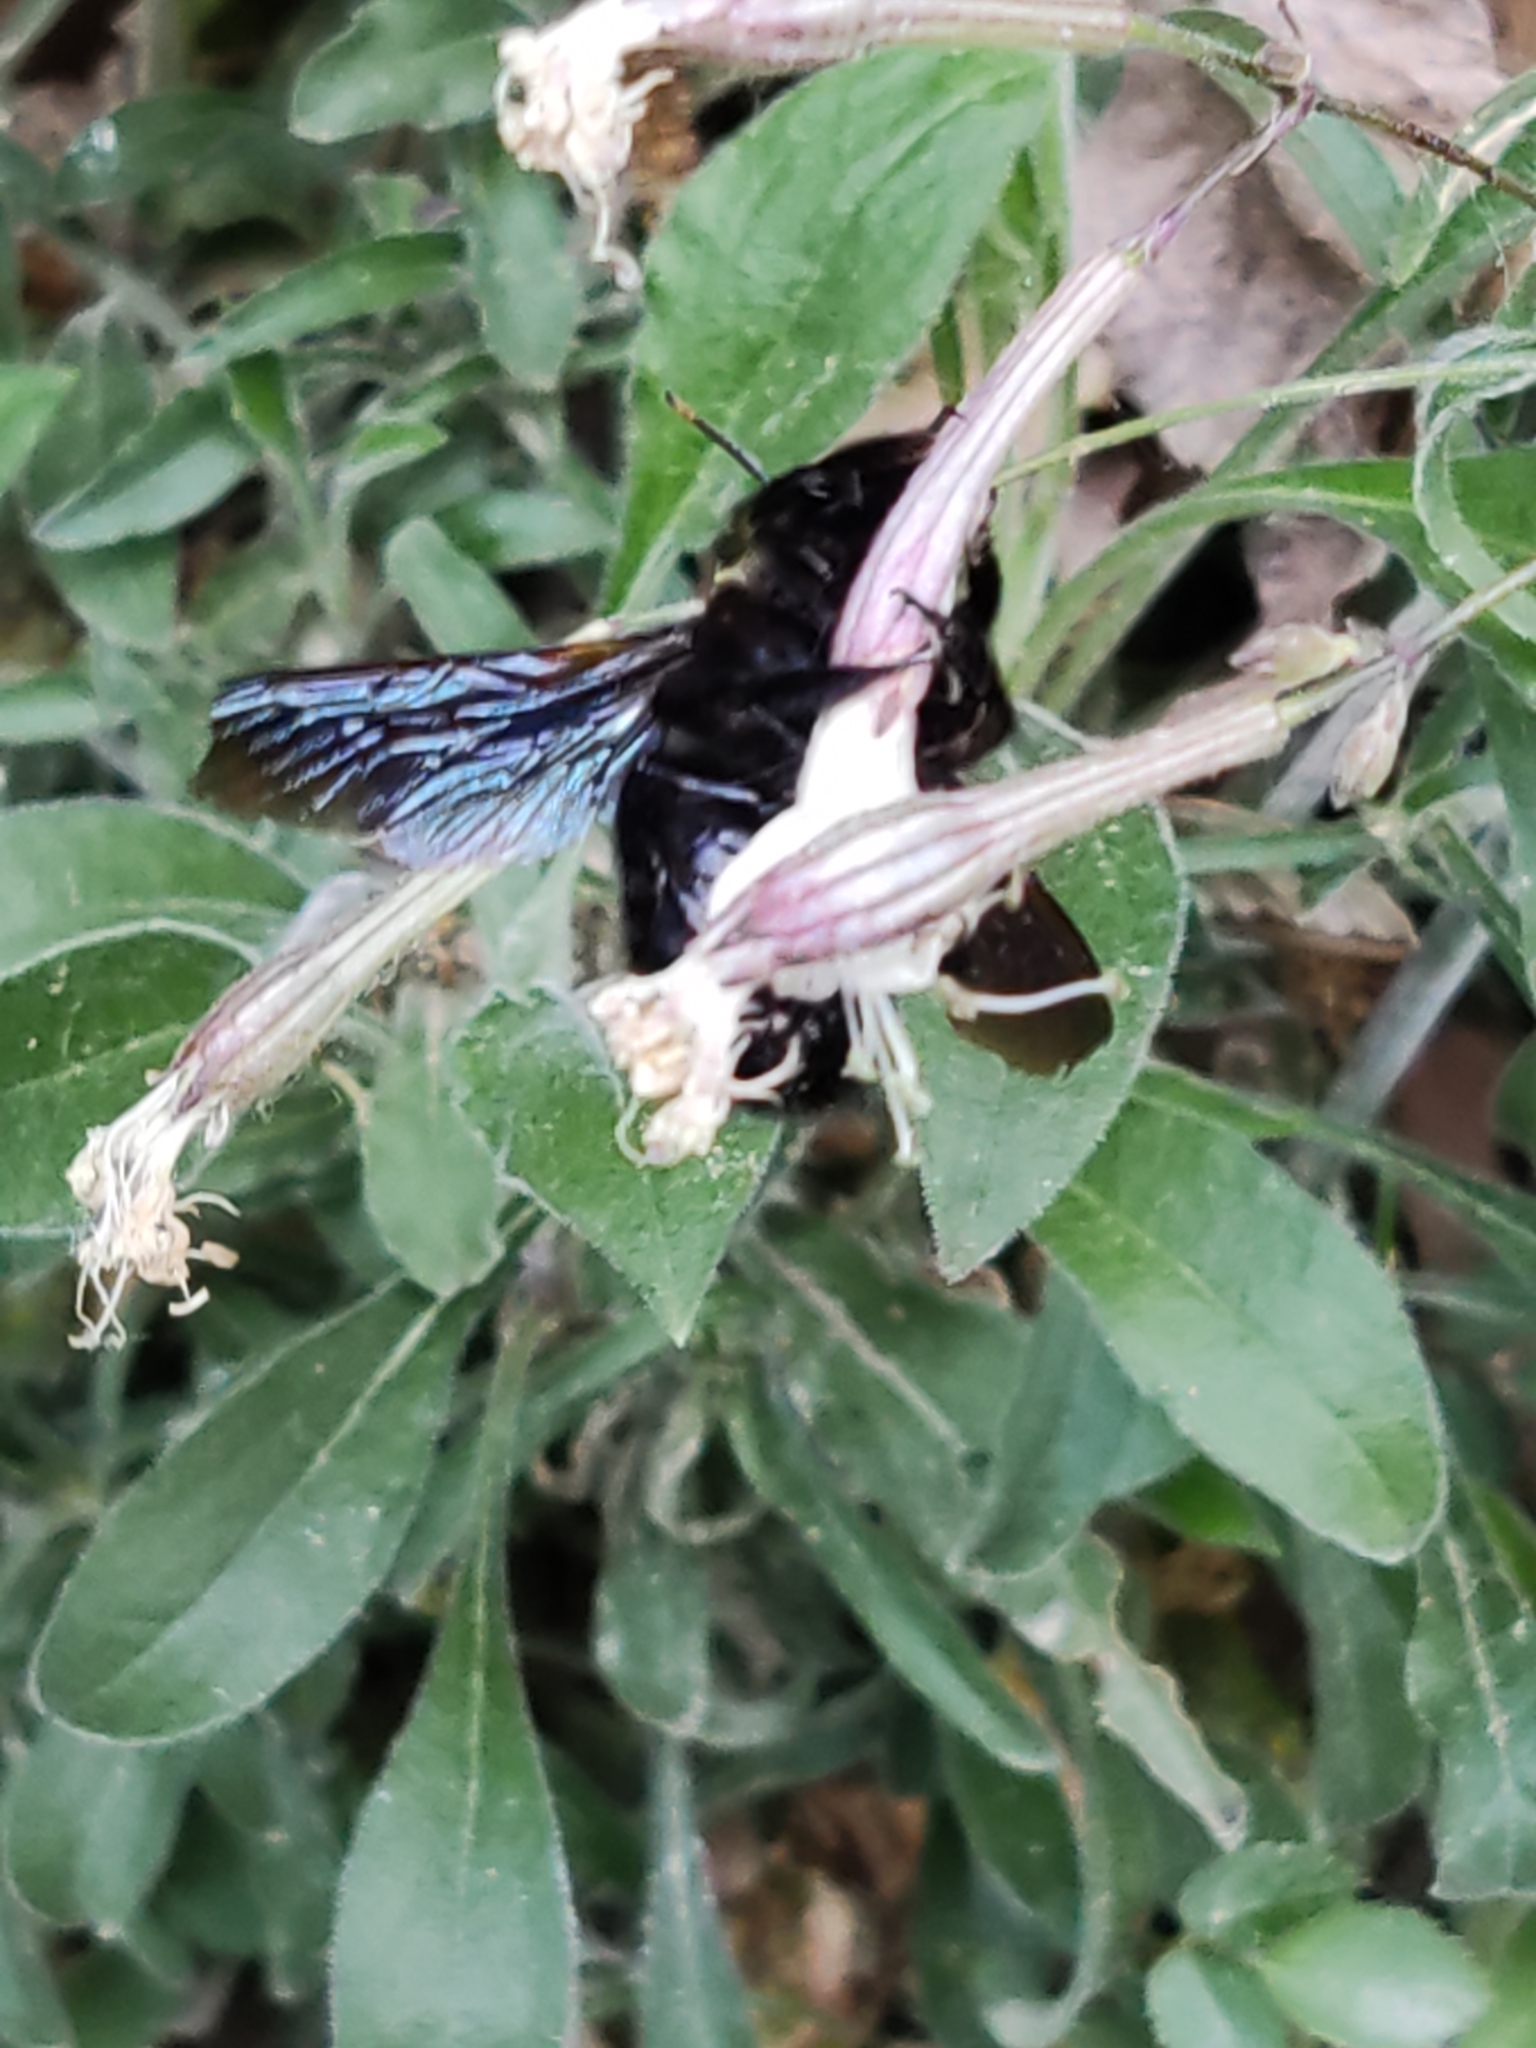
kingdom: Animalia
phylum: Arthropoda
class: Insecta
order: Hymenoptera
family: Apidae
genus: Xylocopa
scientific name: Xylocopa violacea
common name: Violet carpenter bee
